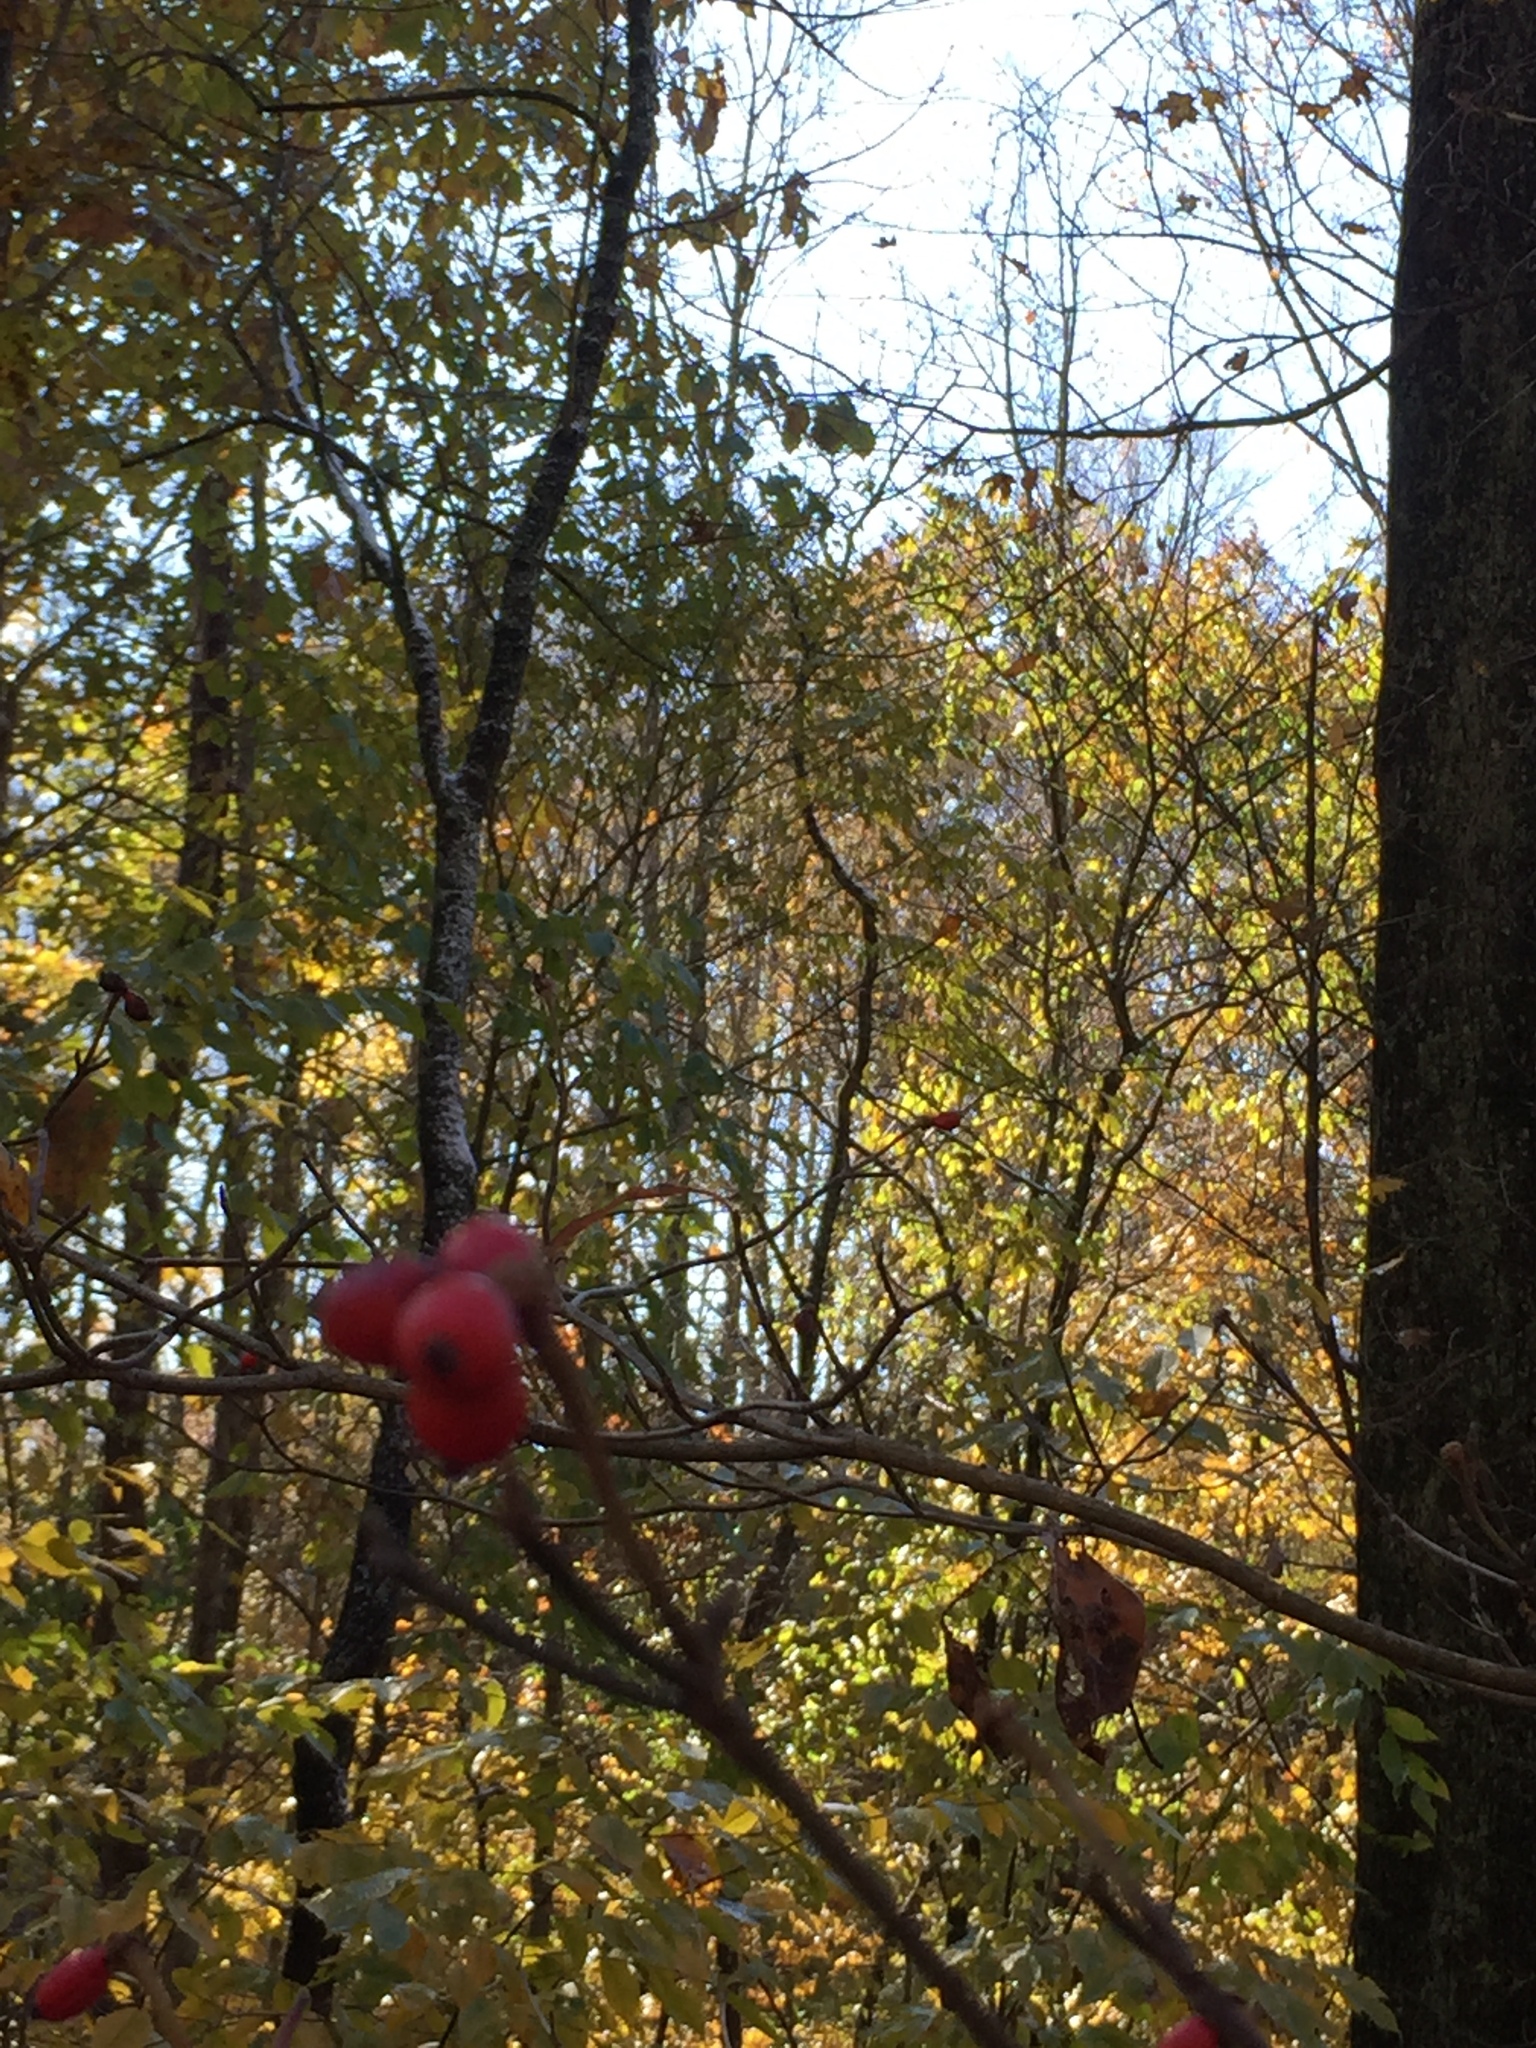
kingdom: Plantae
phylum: Tracheophyta
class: Magnoliopsida
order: Cornales
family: Cornaceae
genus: Cornus
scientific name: Cornus florida
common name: Flowering dogwood
